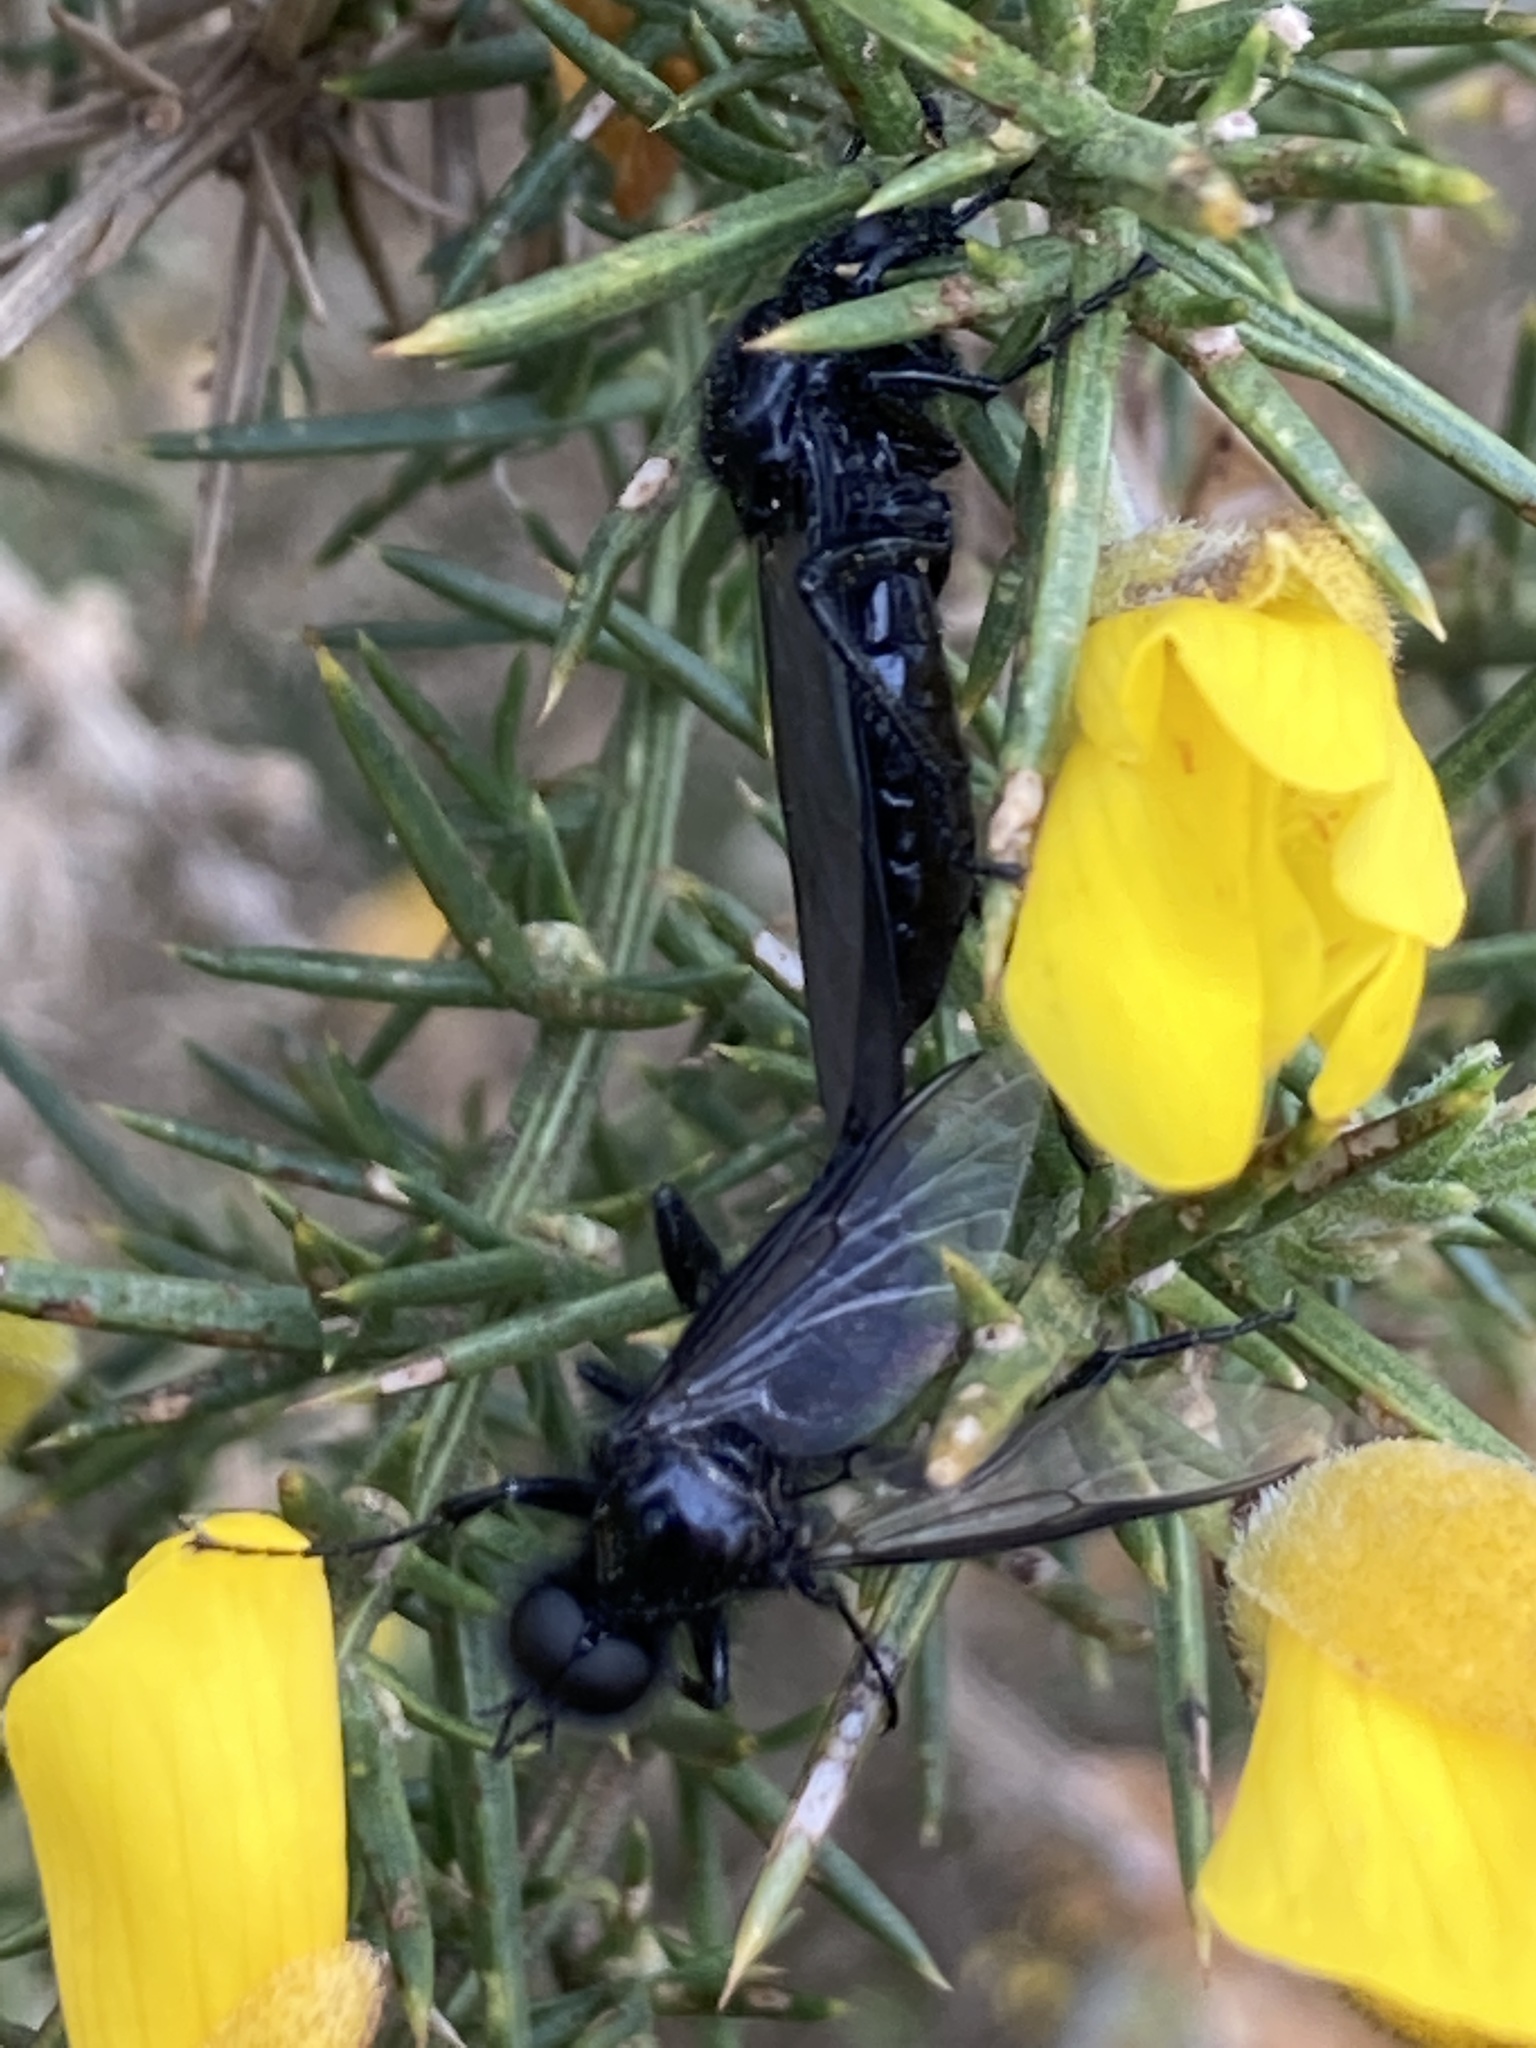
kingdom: Animalia
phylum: Arthropoda
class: Insecta
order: Diptera
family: Bibionidae
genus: Bibio
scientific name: Bibio marci
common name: St marks fly
